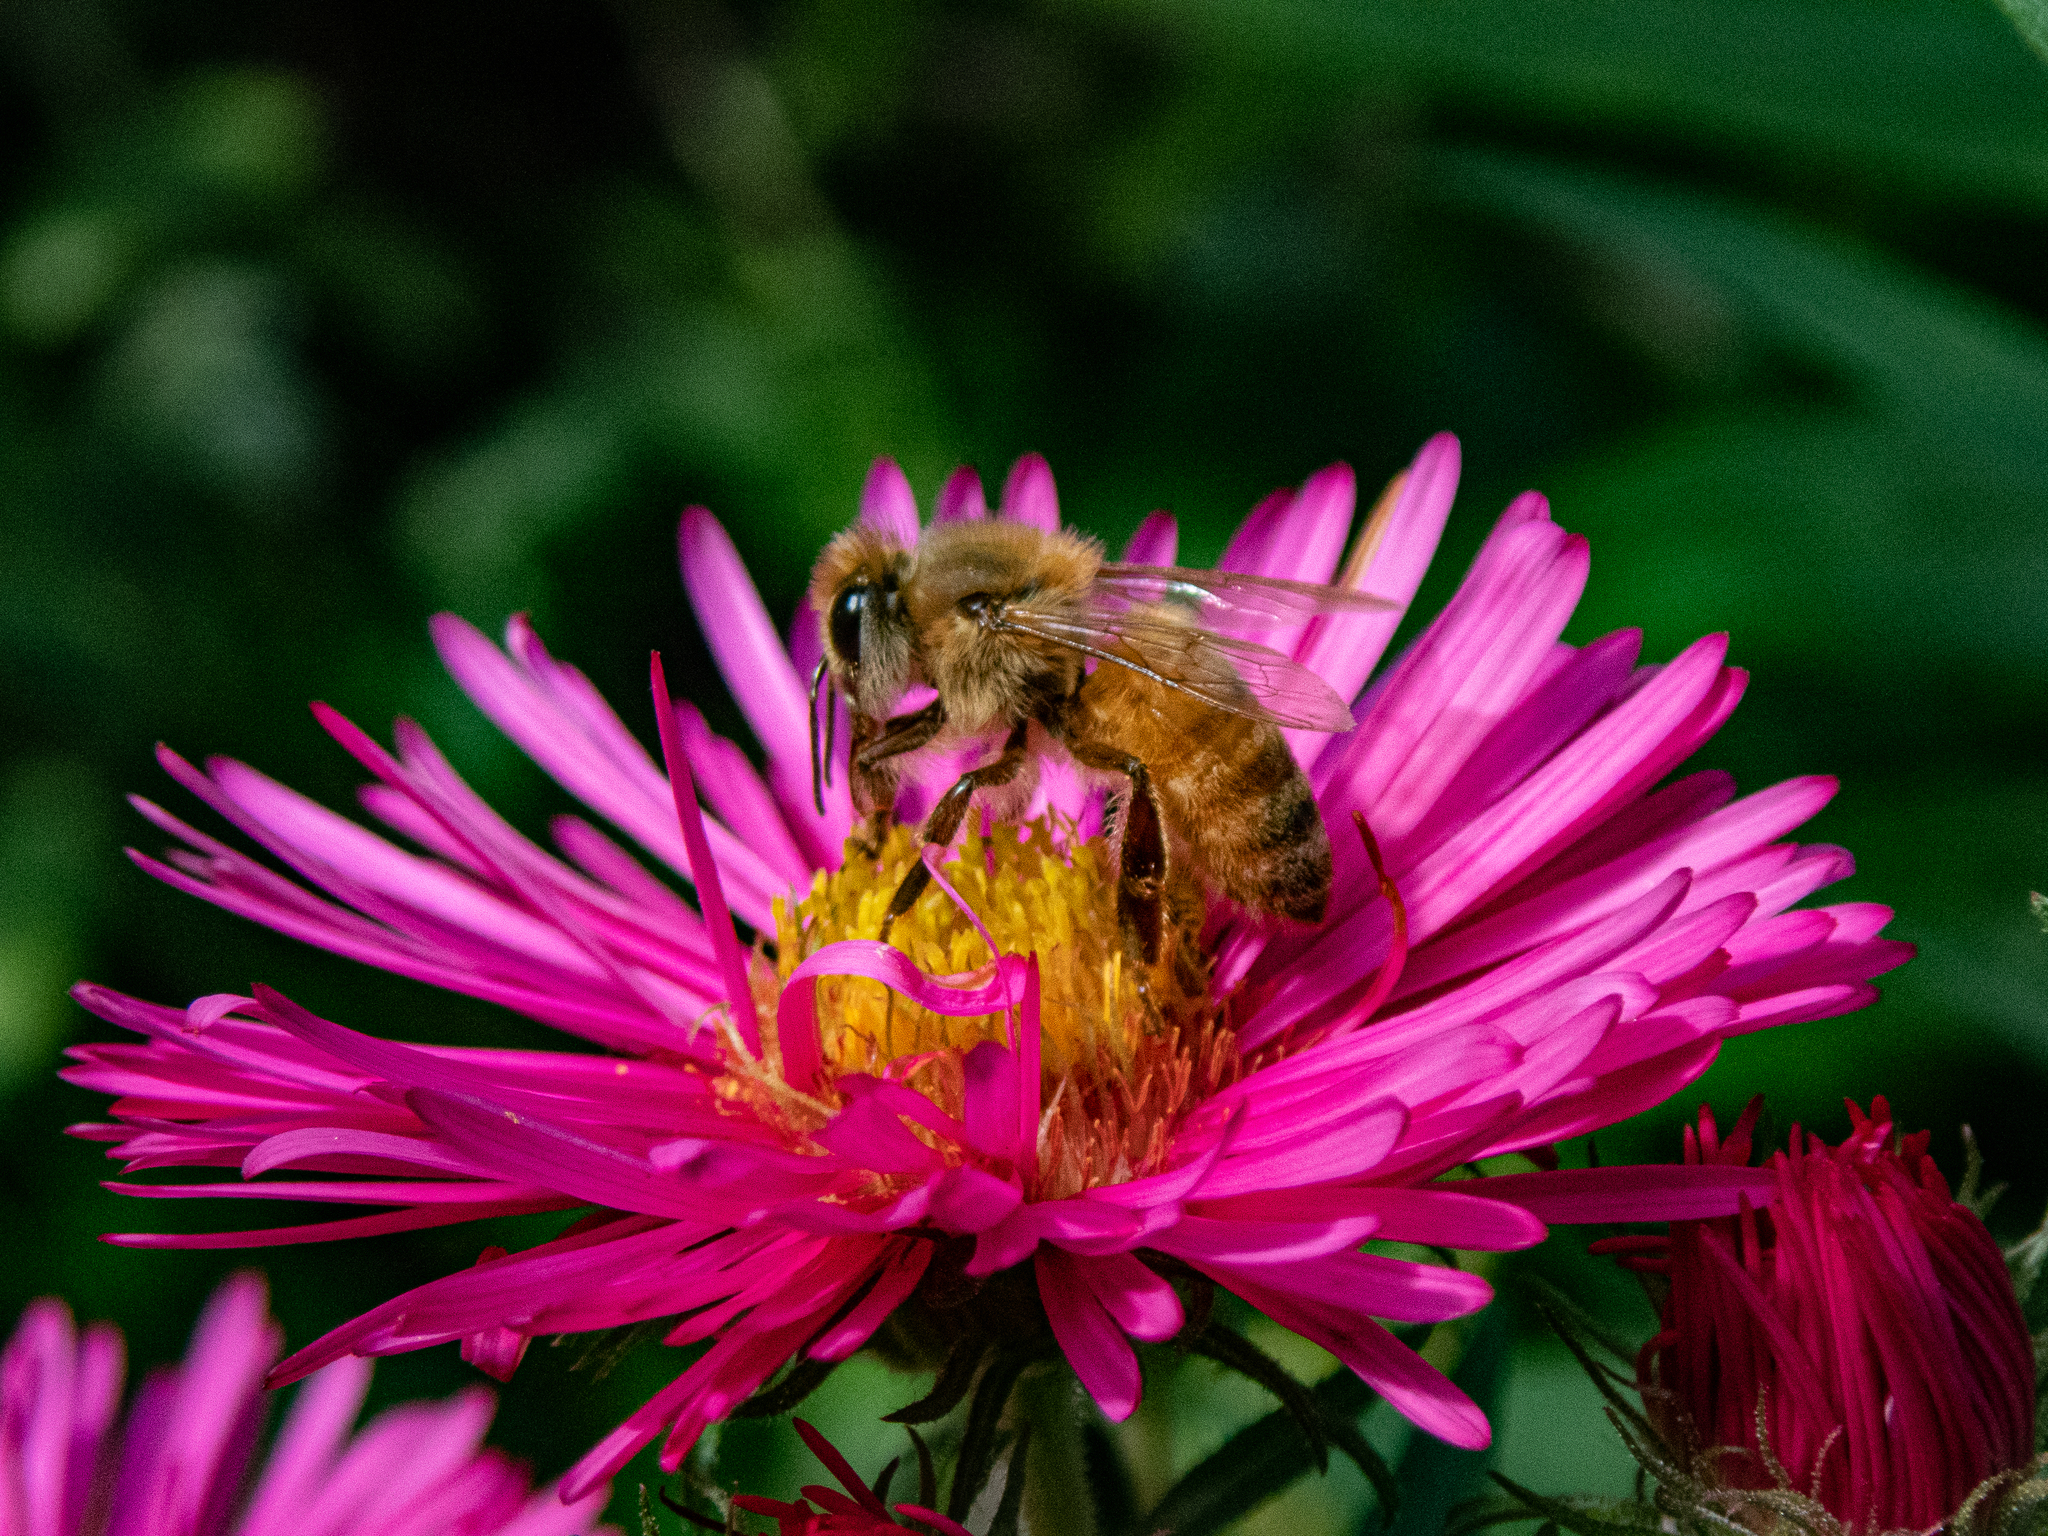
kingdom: Animalia
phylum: Arthropoda
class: Insecta
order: Hymenoptera
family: Apidae
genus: Apis
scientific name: Apis mellifera
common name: Honey bee
